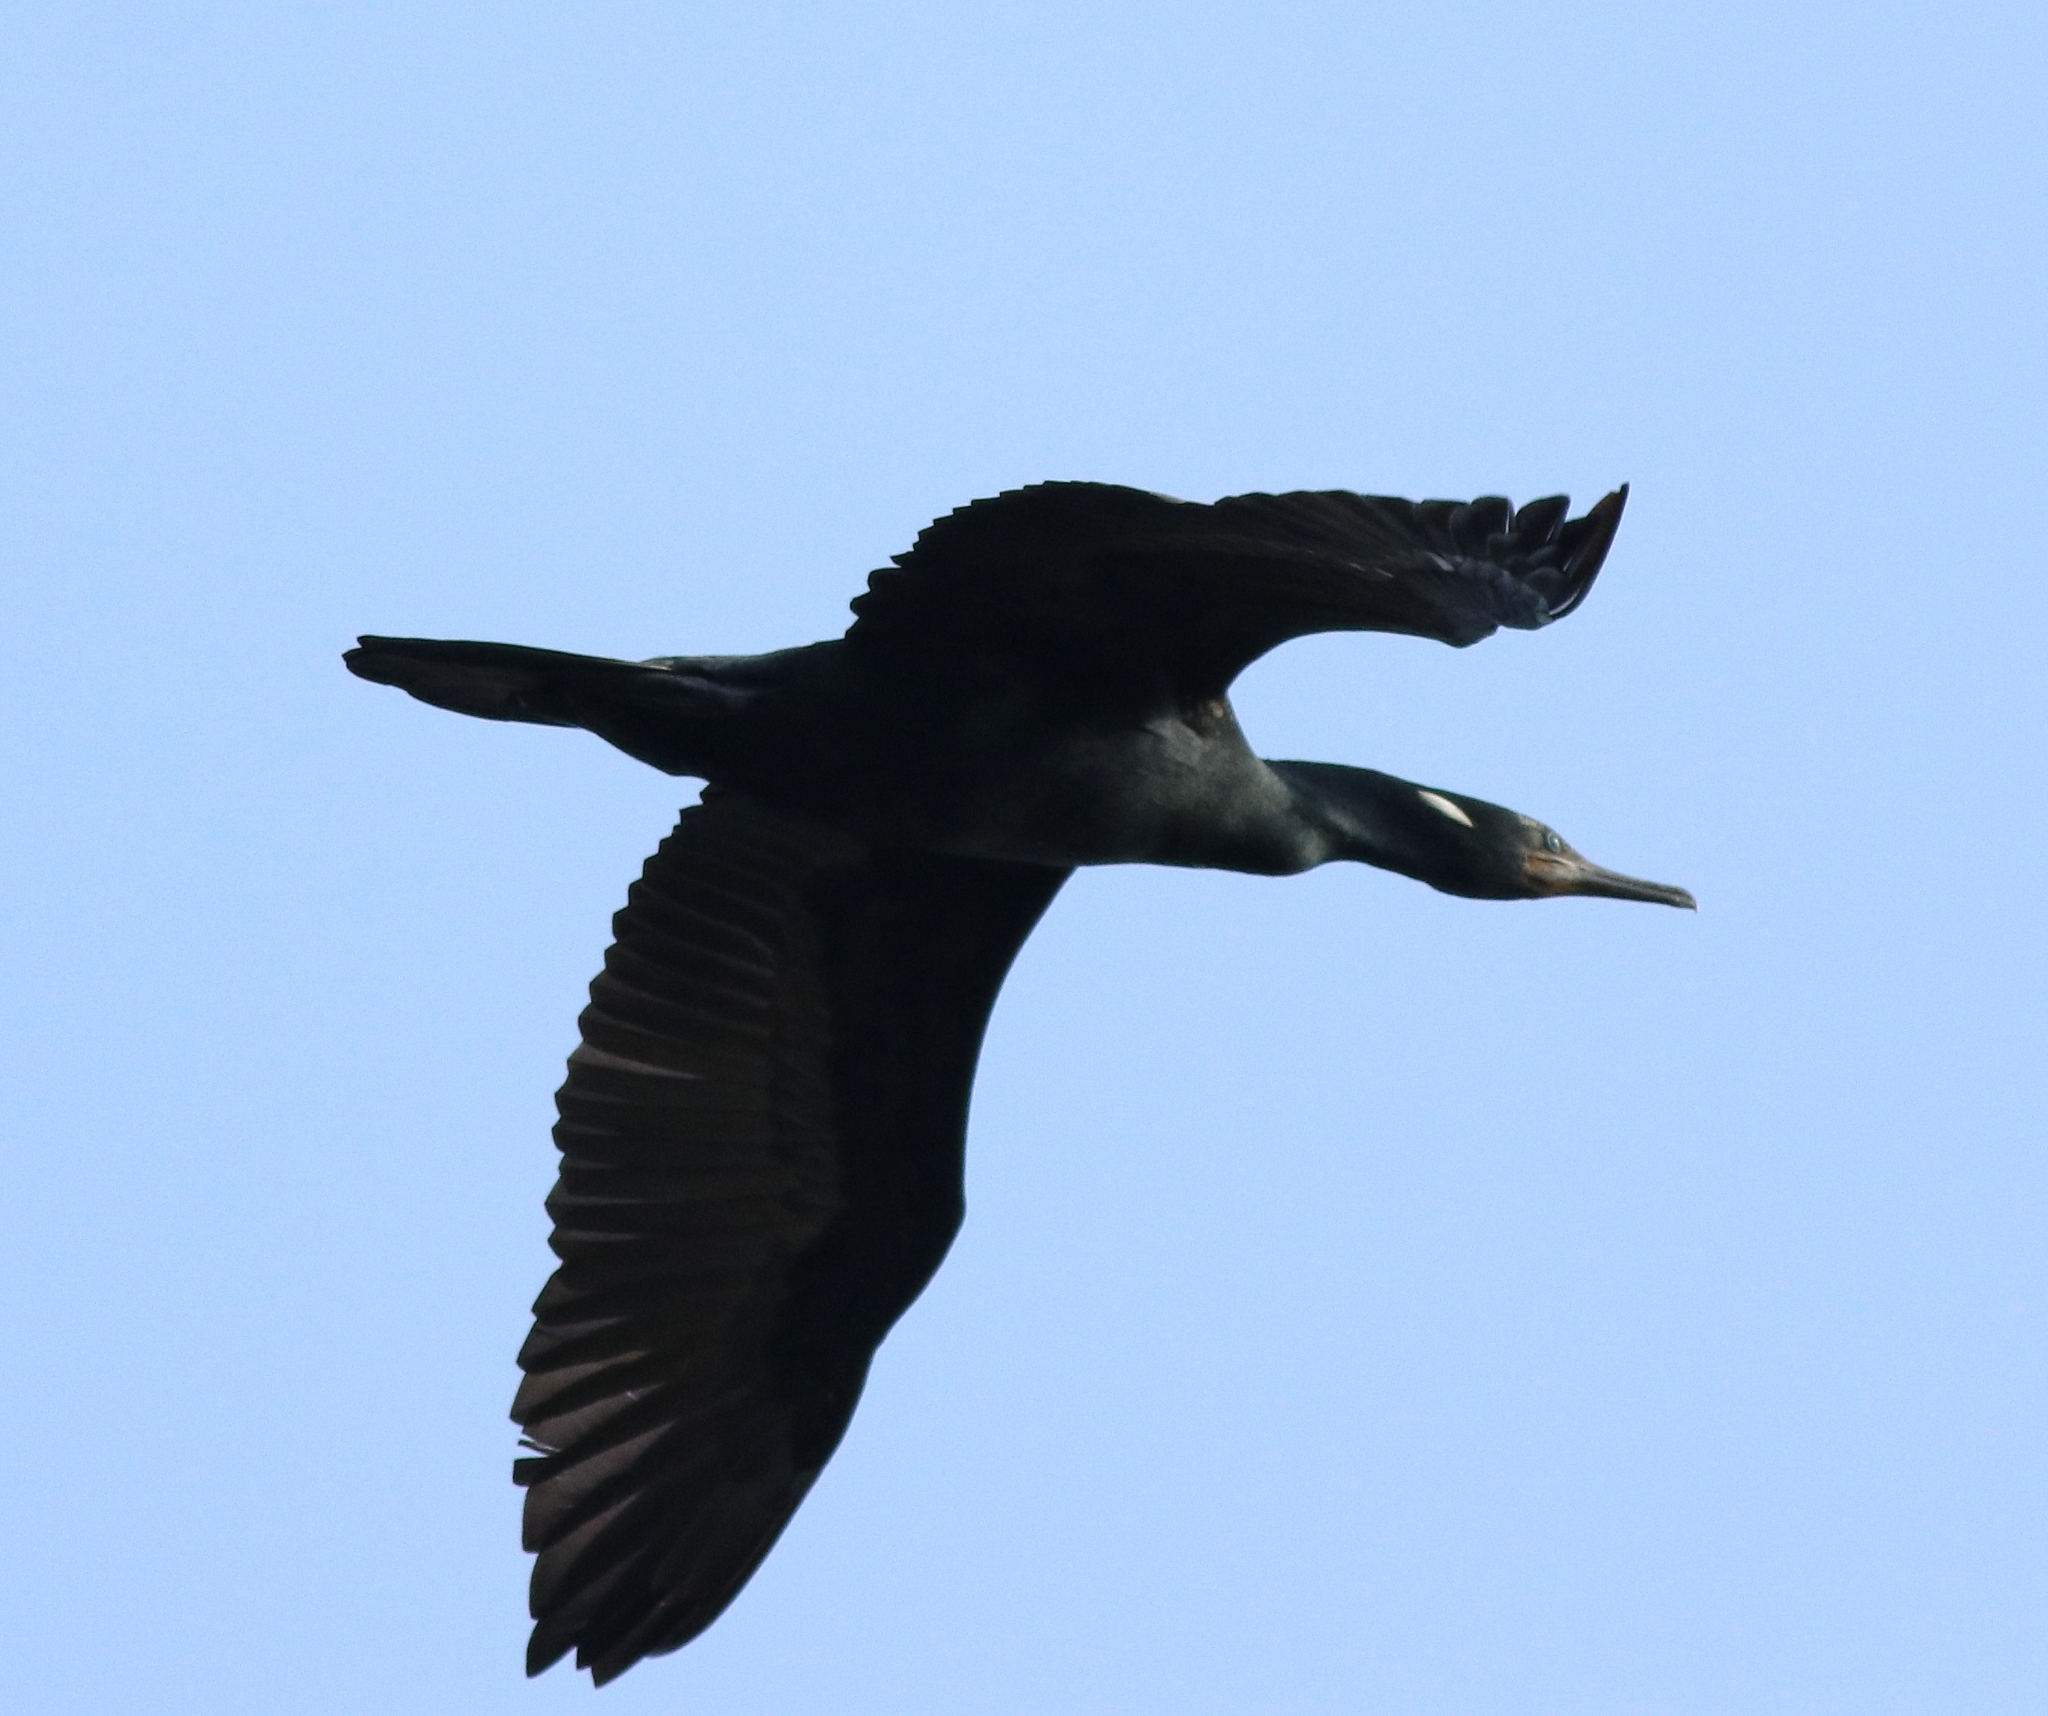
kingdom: Animalia
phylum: Chordata
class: Aves
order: Suliformes
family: Phalacrocoracidae
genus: Phalacrocorax
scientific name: Phalacrocorax fuscicollis
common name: Indian cormorant
